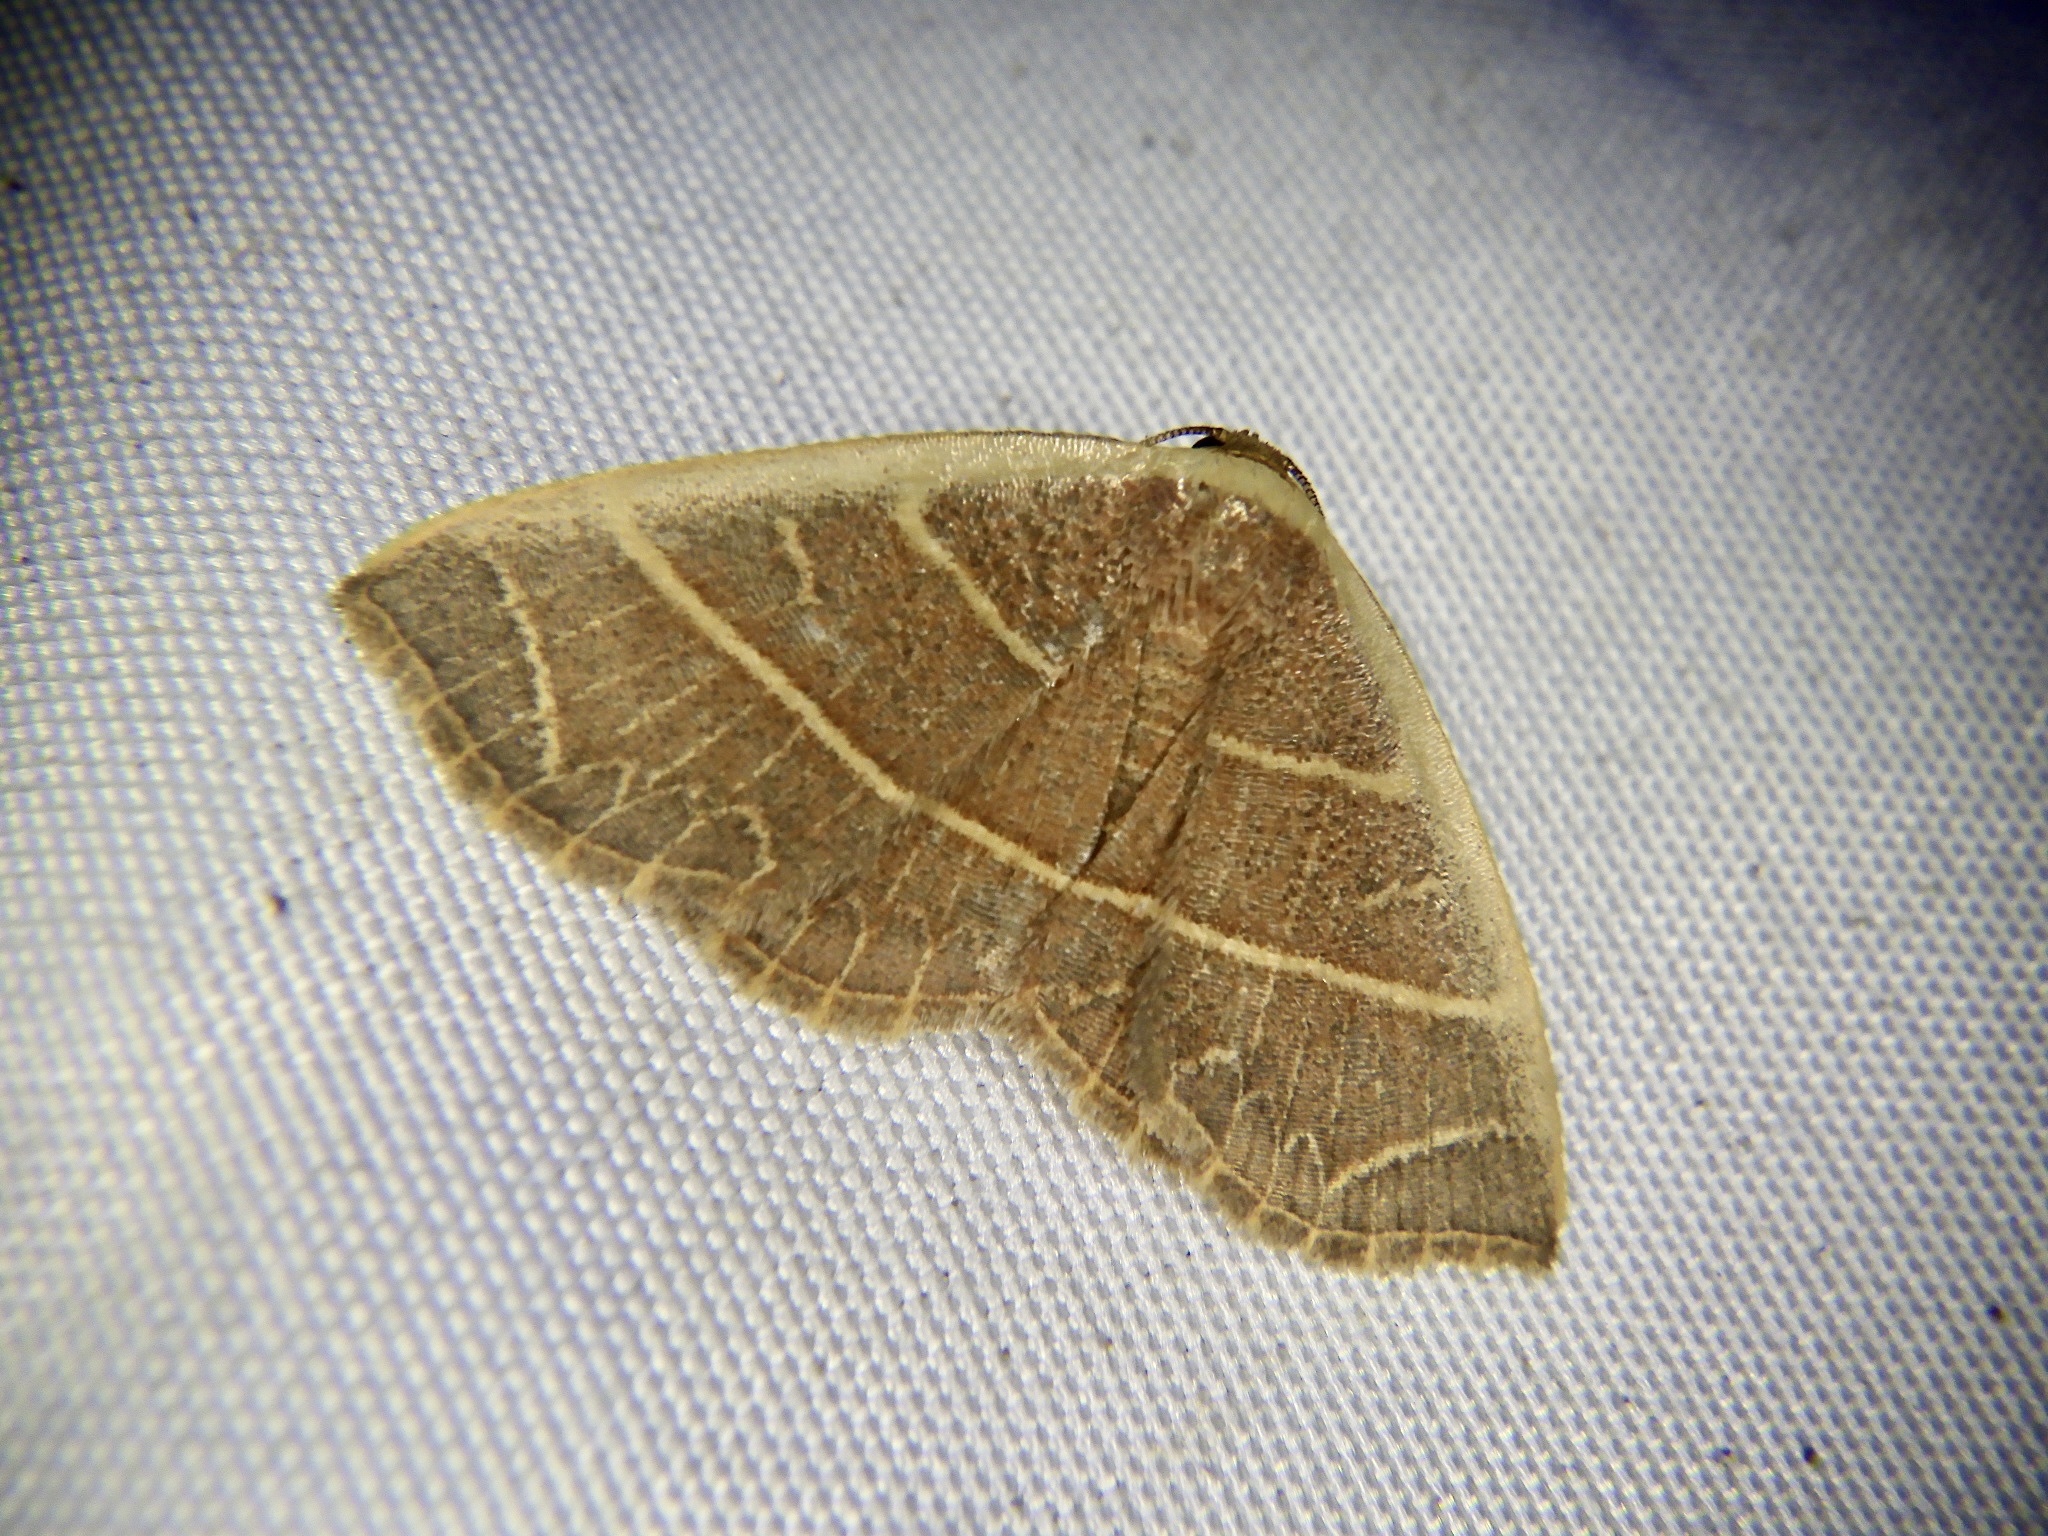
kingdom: Animalia
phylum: Arthropoda
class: Insecta
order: Lepidoptera
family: Noctuidae
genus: Oruza
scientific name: Oruza mira
